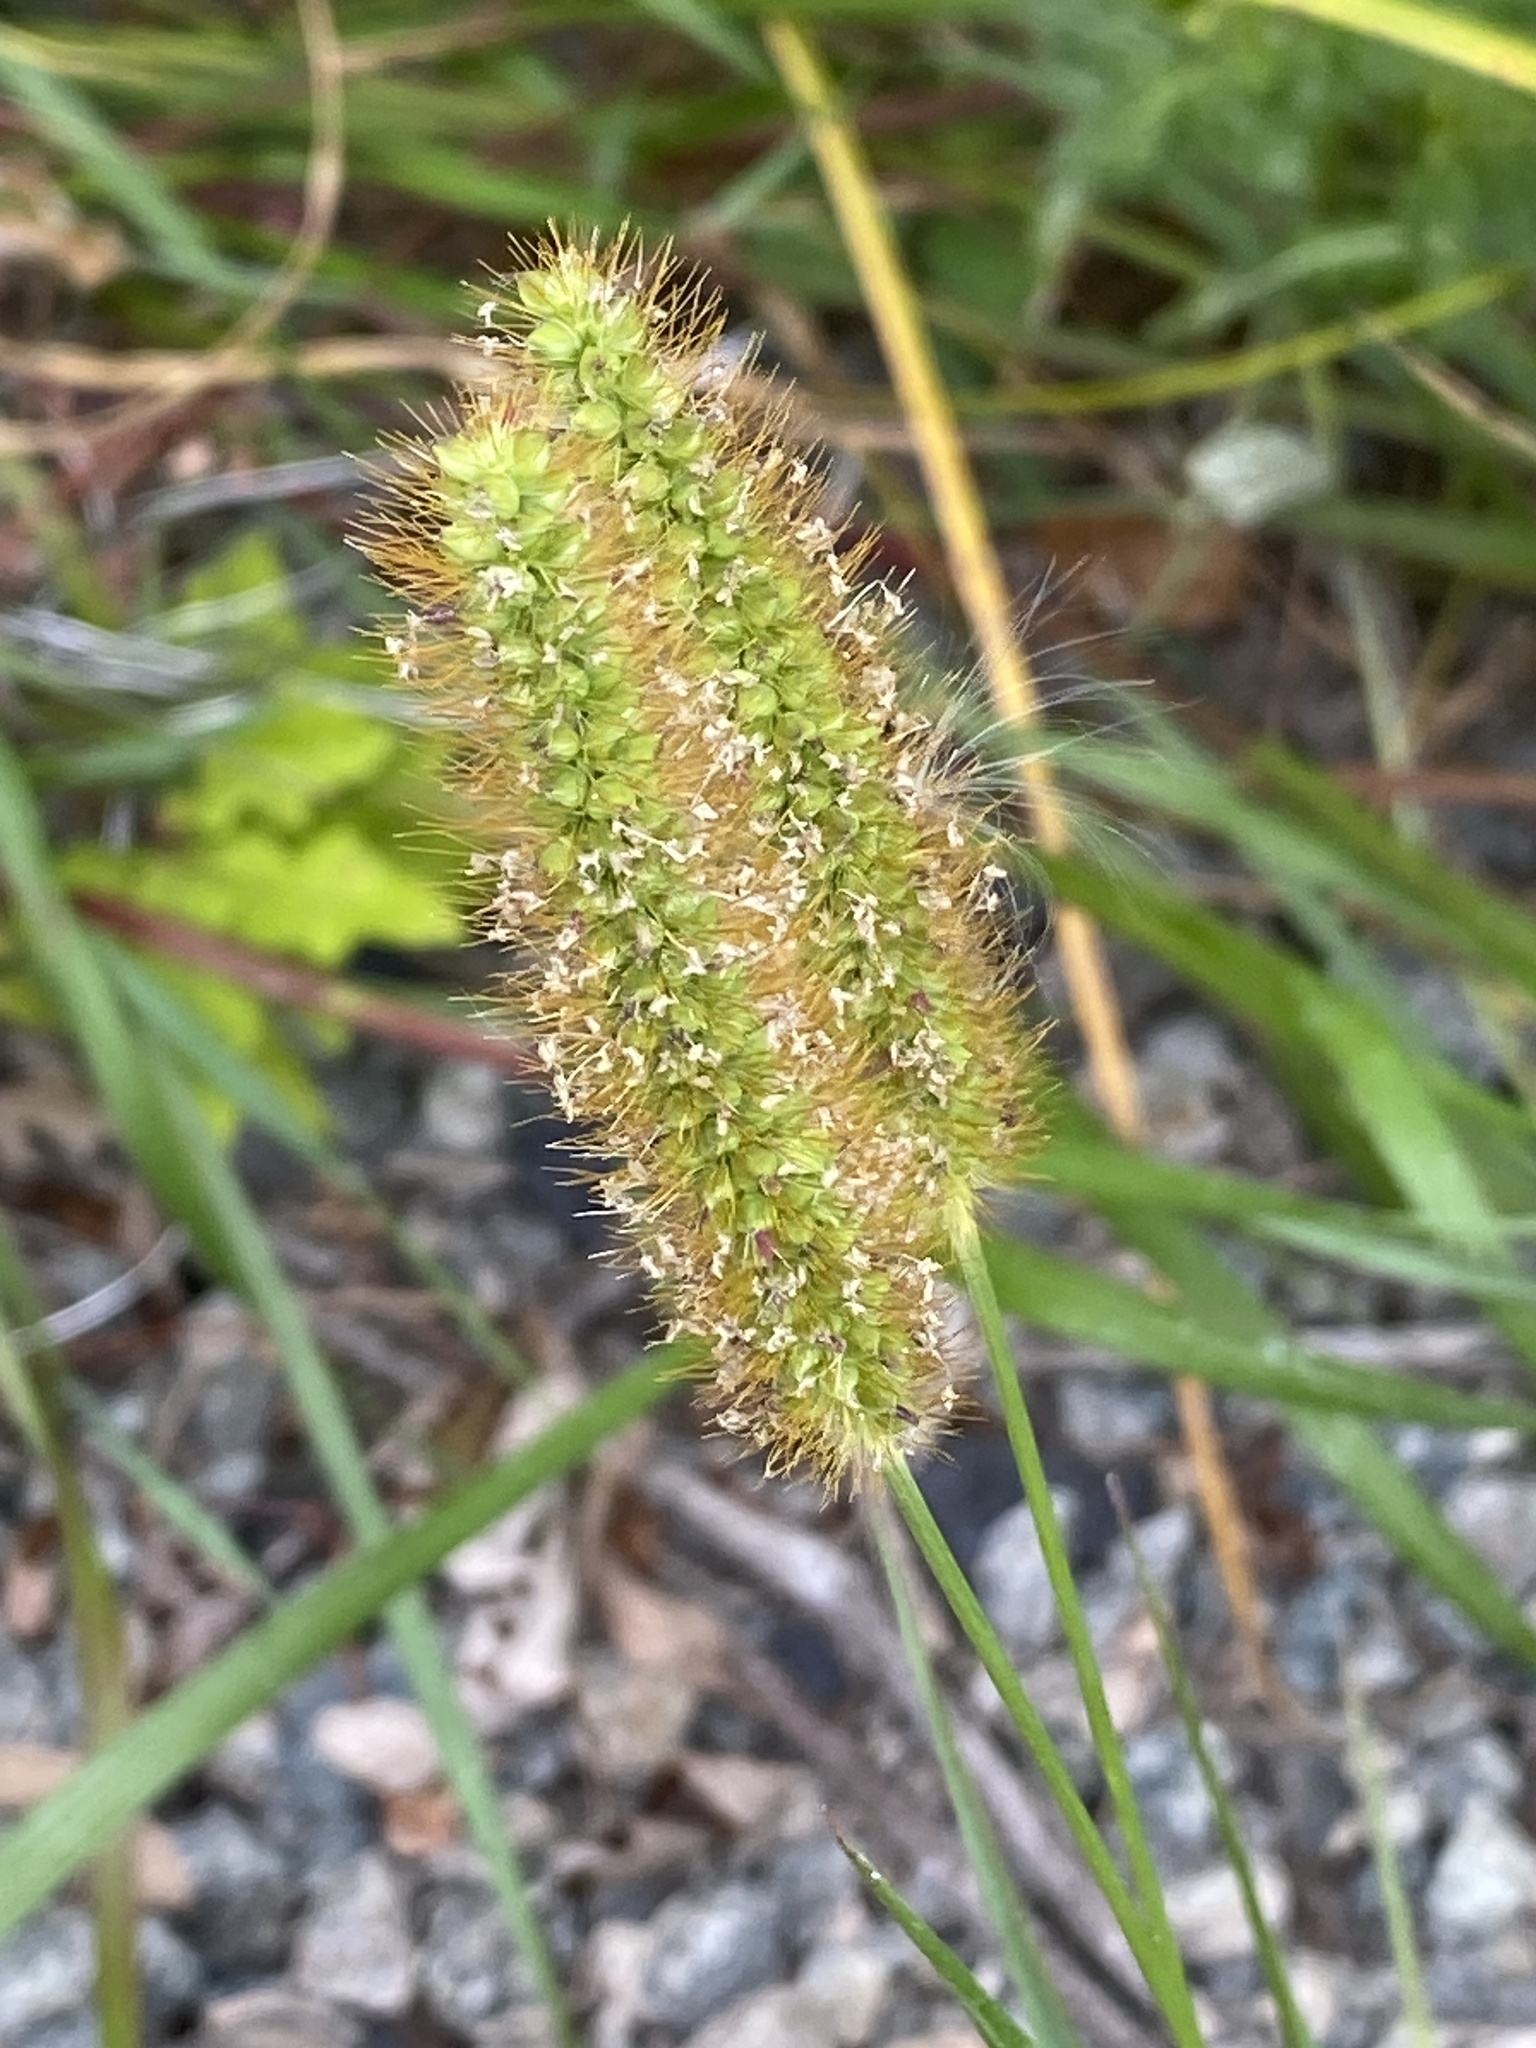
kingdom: Plantae
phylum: Tracheophyta
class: Liliopsida
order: Poales
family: Poaceae
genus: Setaria
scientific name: Setaria pumila
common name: Yellow bristle-grass
